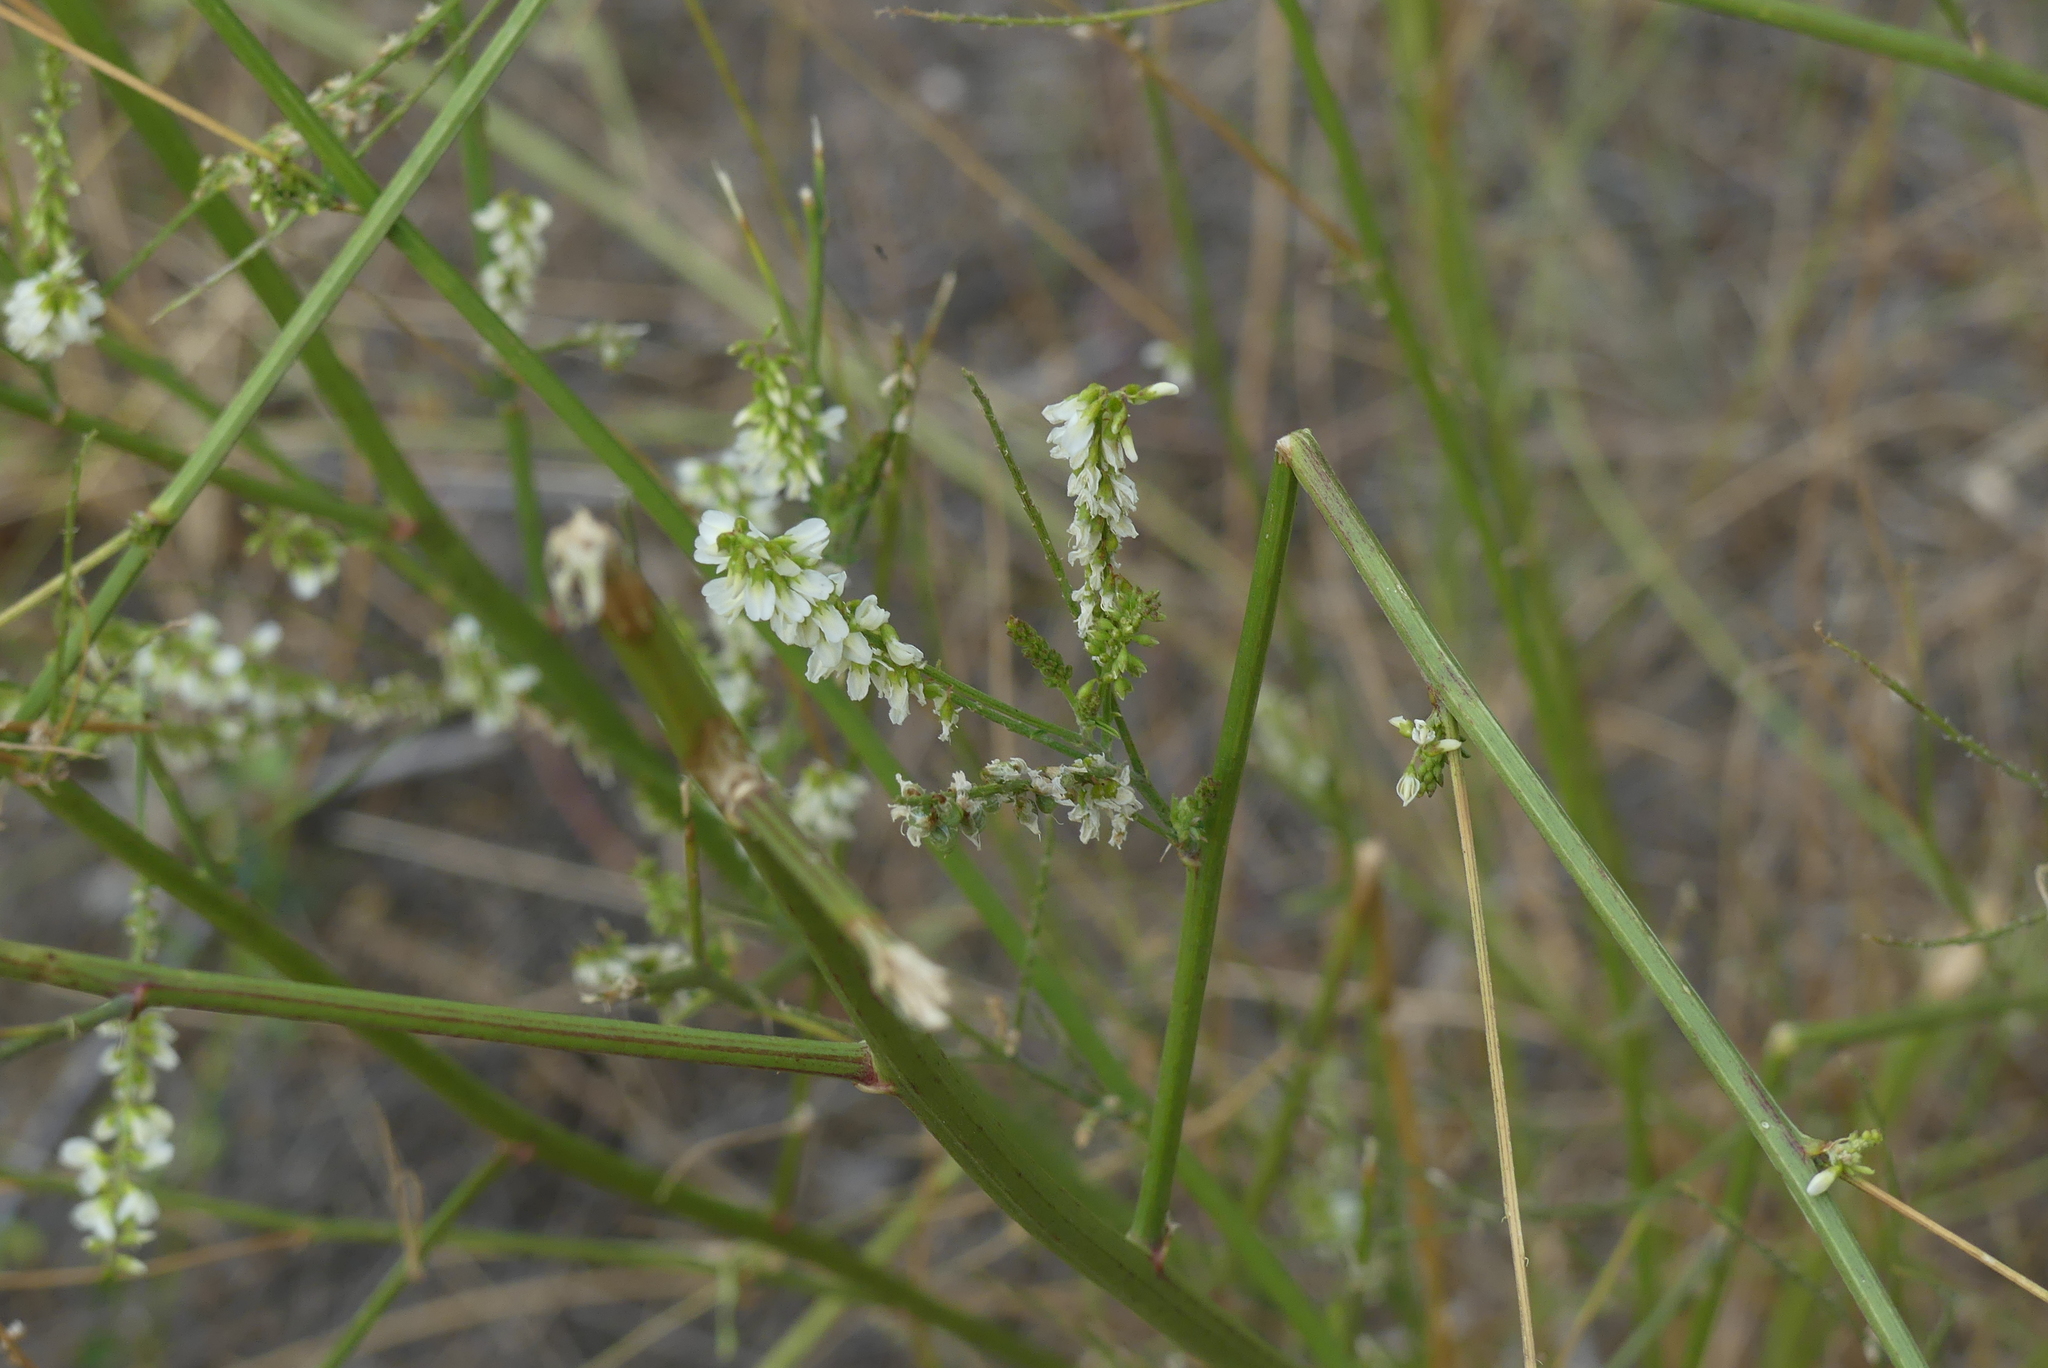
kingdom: Plantae
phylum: Tracheophyta
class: Magnoliopsida
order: Fabales
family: Fabaceae
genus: Melilotus
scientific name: Melilotus albus
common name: White melilot
